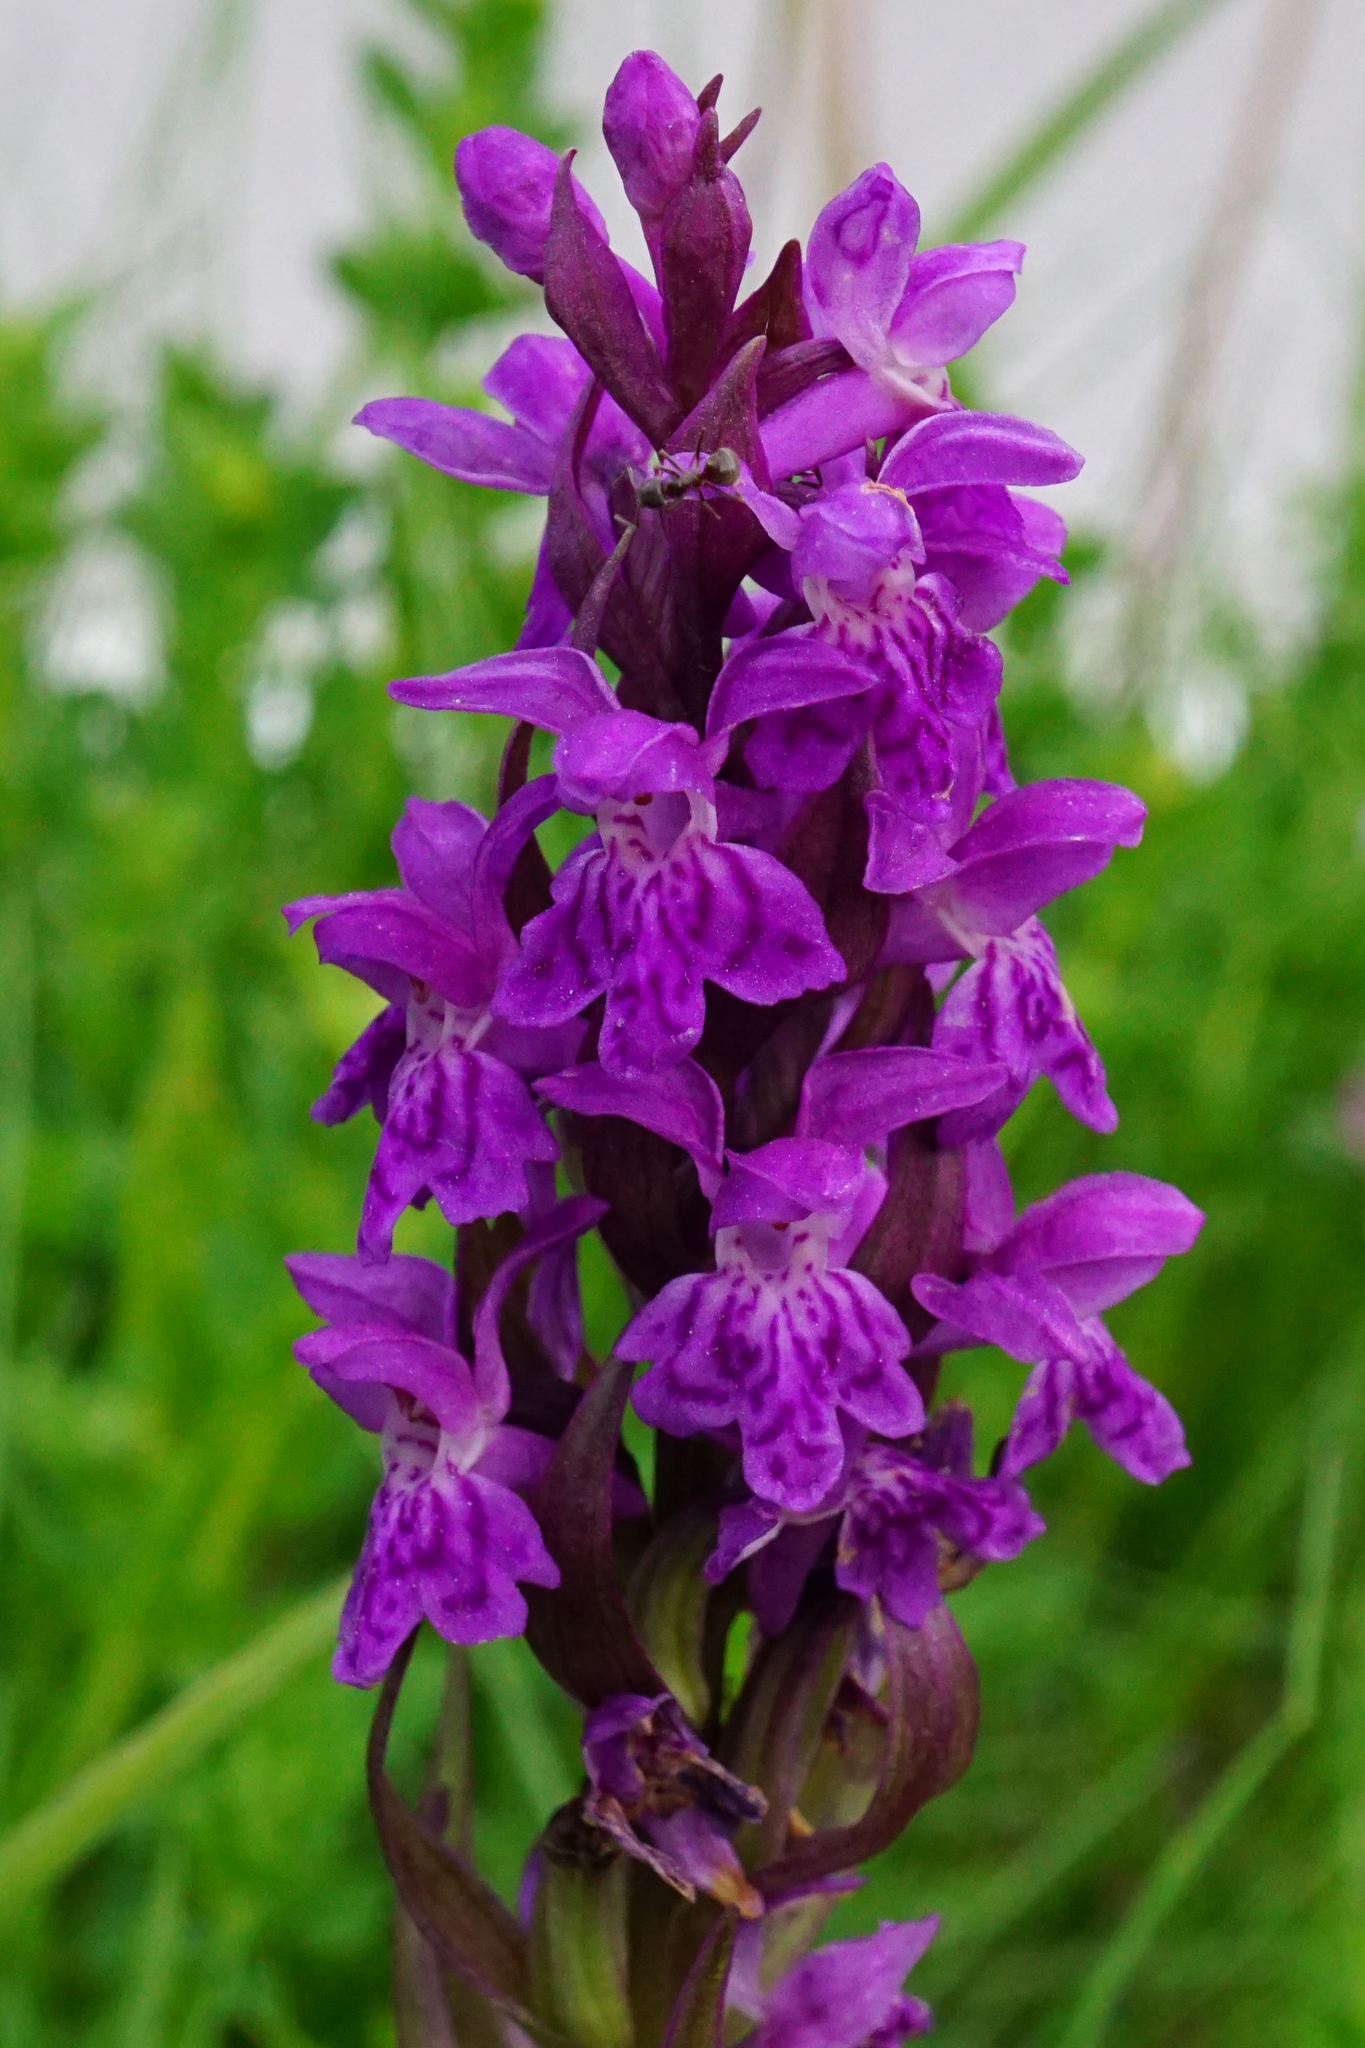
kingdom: Plantae
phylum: Tracheophyta
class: Liliopsida
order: Asparagales
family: Orchidaceae
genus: Dactylorhiza
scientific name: Dactylorhiza majalis
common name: Marsh orchid
